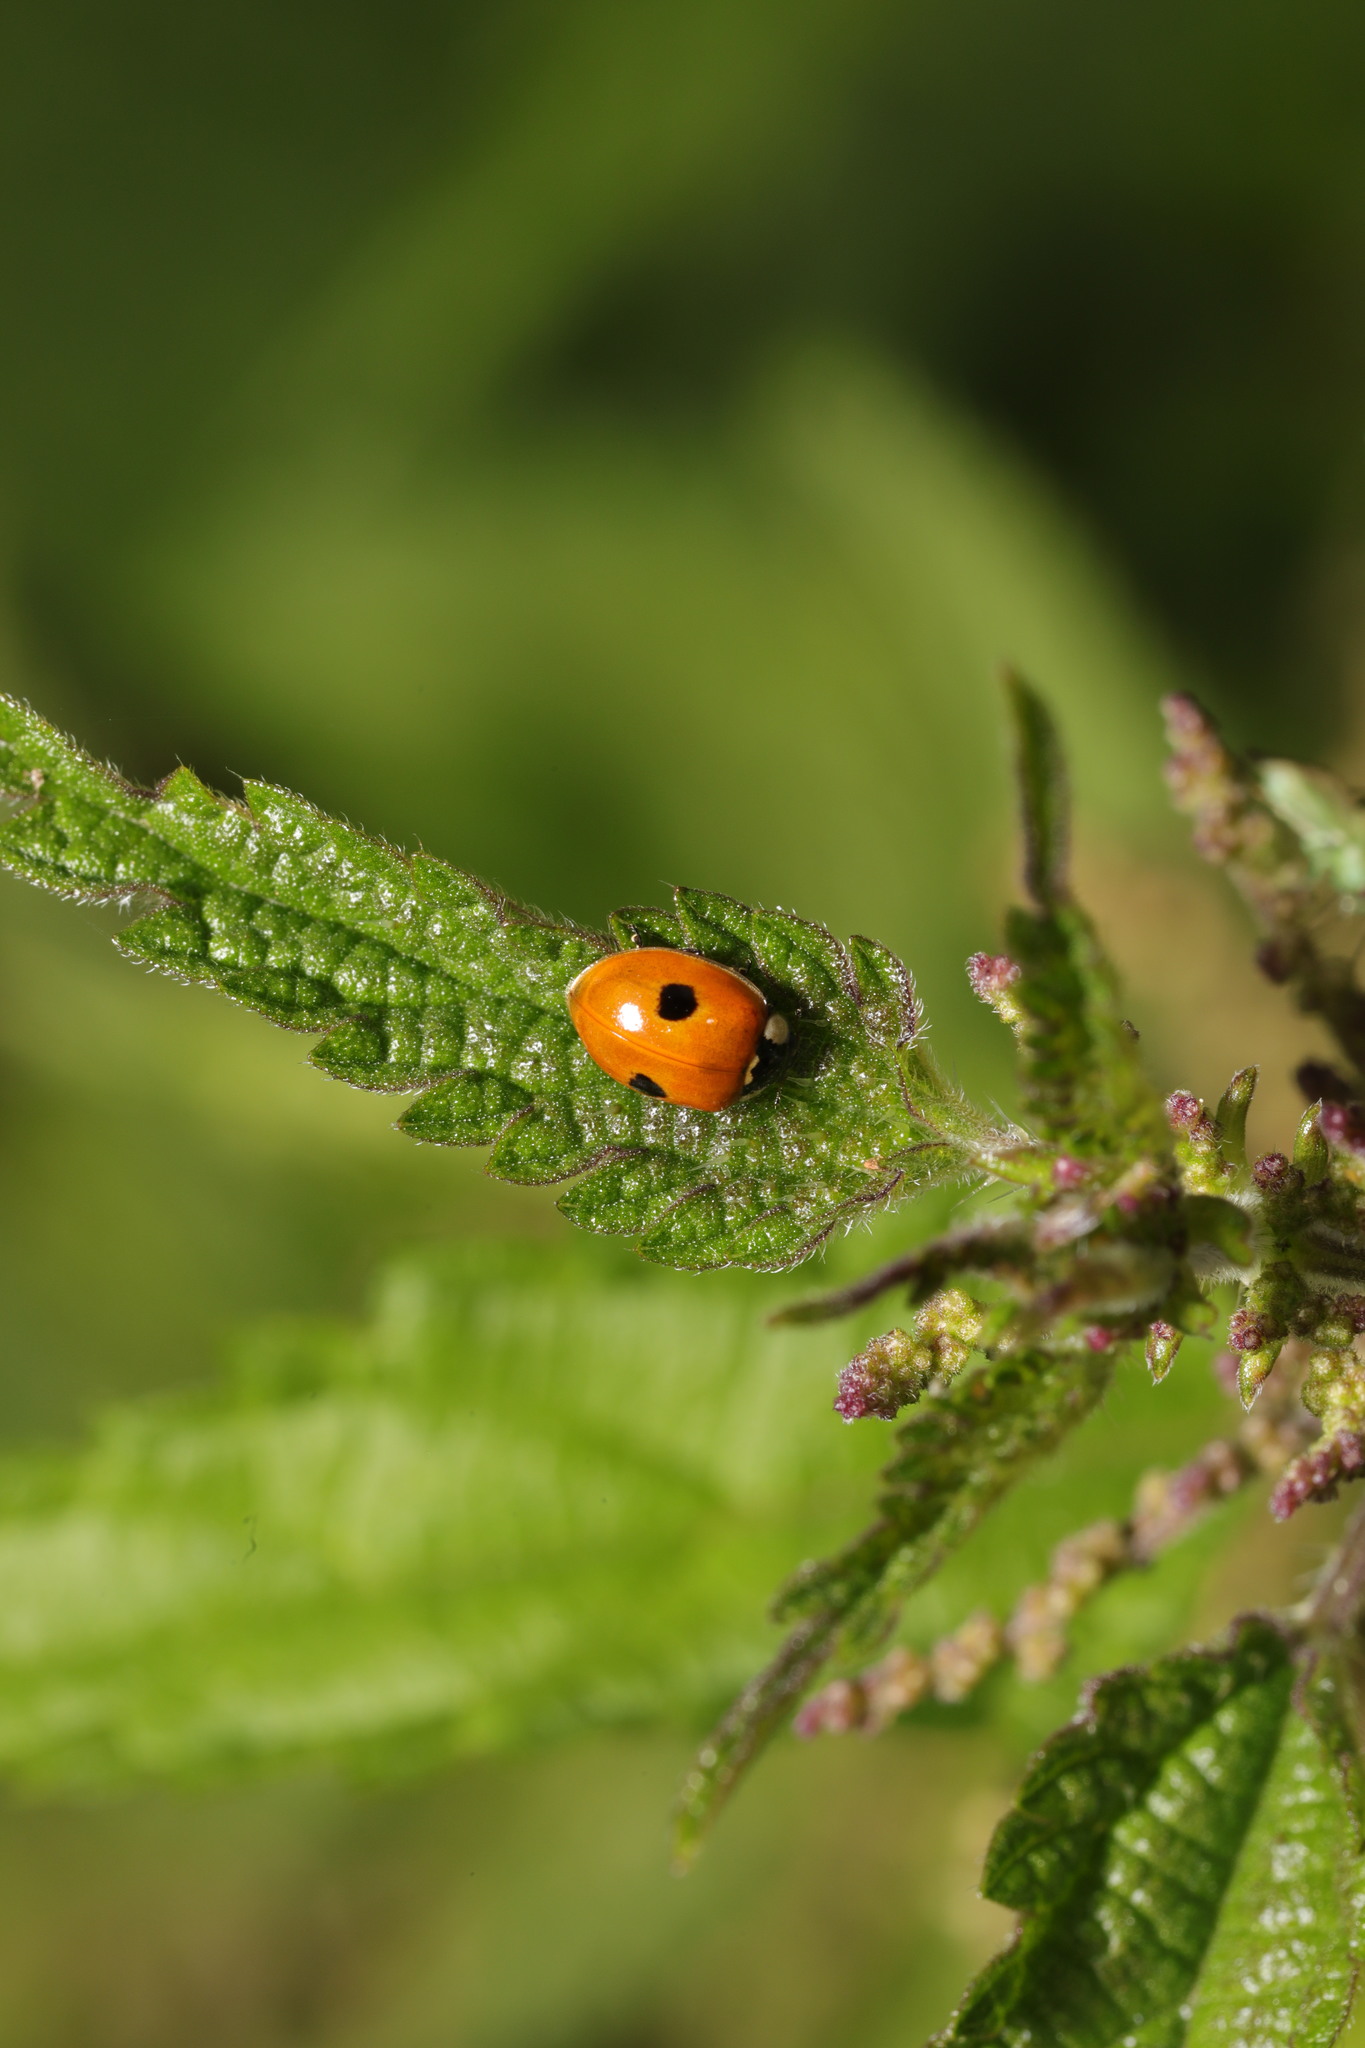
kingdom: Animalia
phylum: Arthropoda
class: Insecta
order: Coleoptera
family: Coccinellidae
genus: Adalia
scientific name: Adalia bipunctata
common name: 2-spot ladybird
